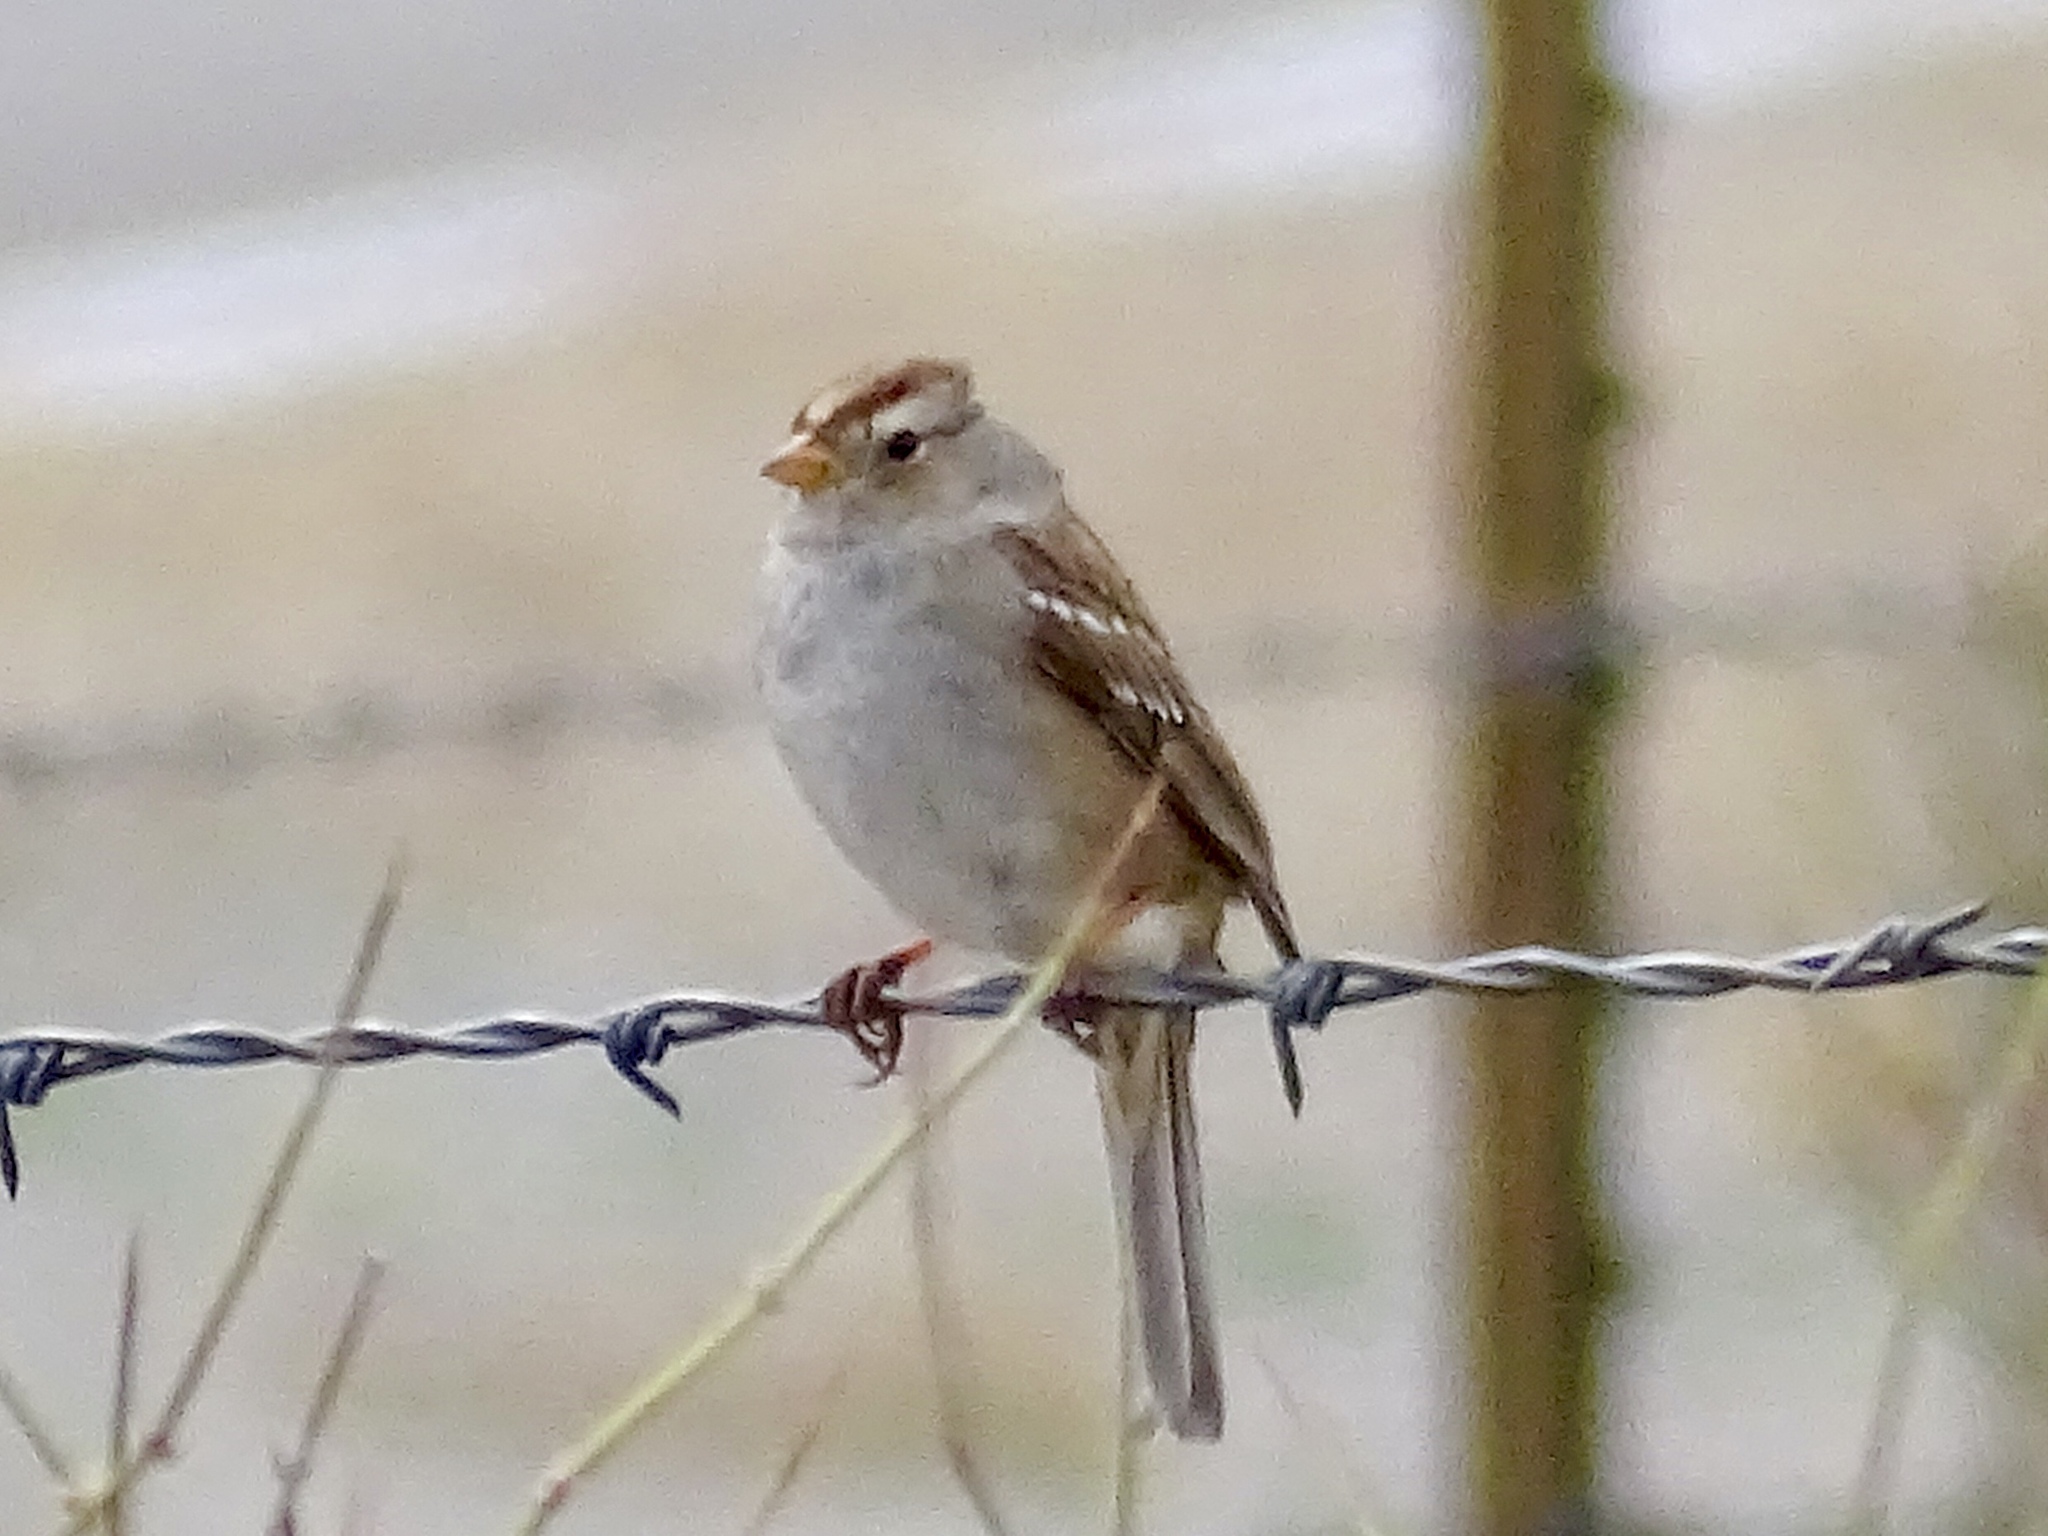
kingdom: Animalia
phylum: Chordata
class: Aves
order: Passeriformes
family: Passerellidae
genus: Zonotrichia
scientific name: Zonotrichia leucophrys
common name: White-crowned sparrow
